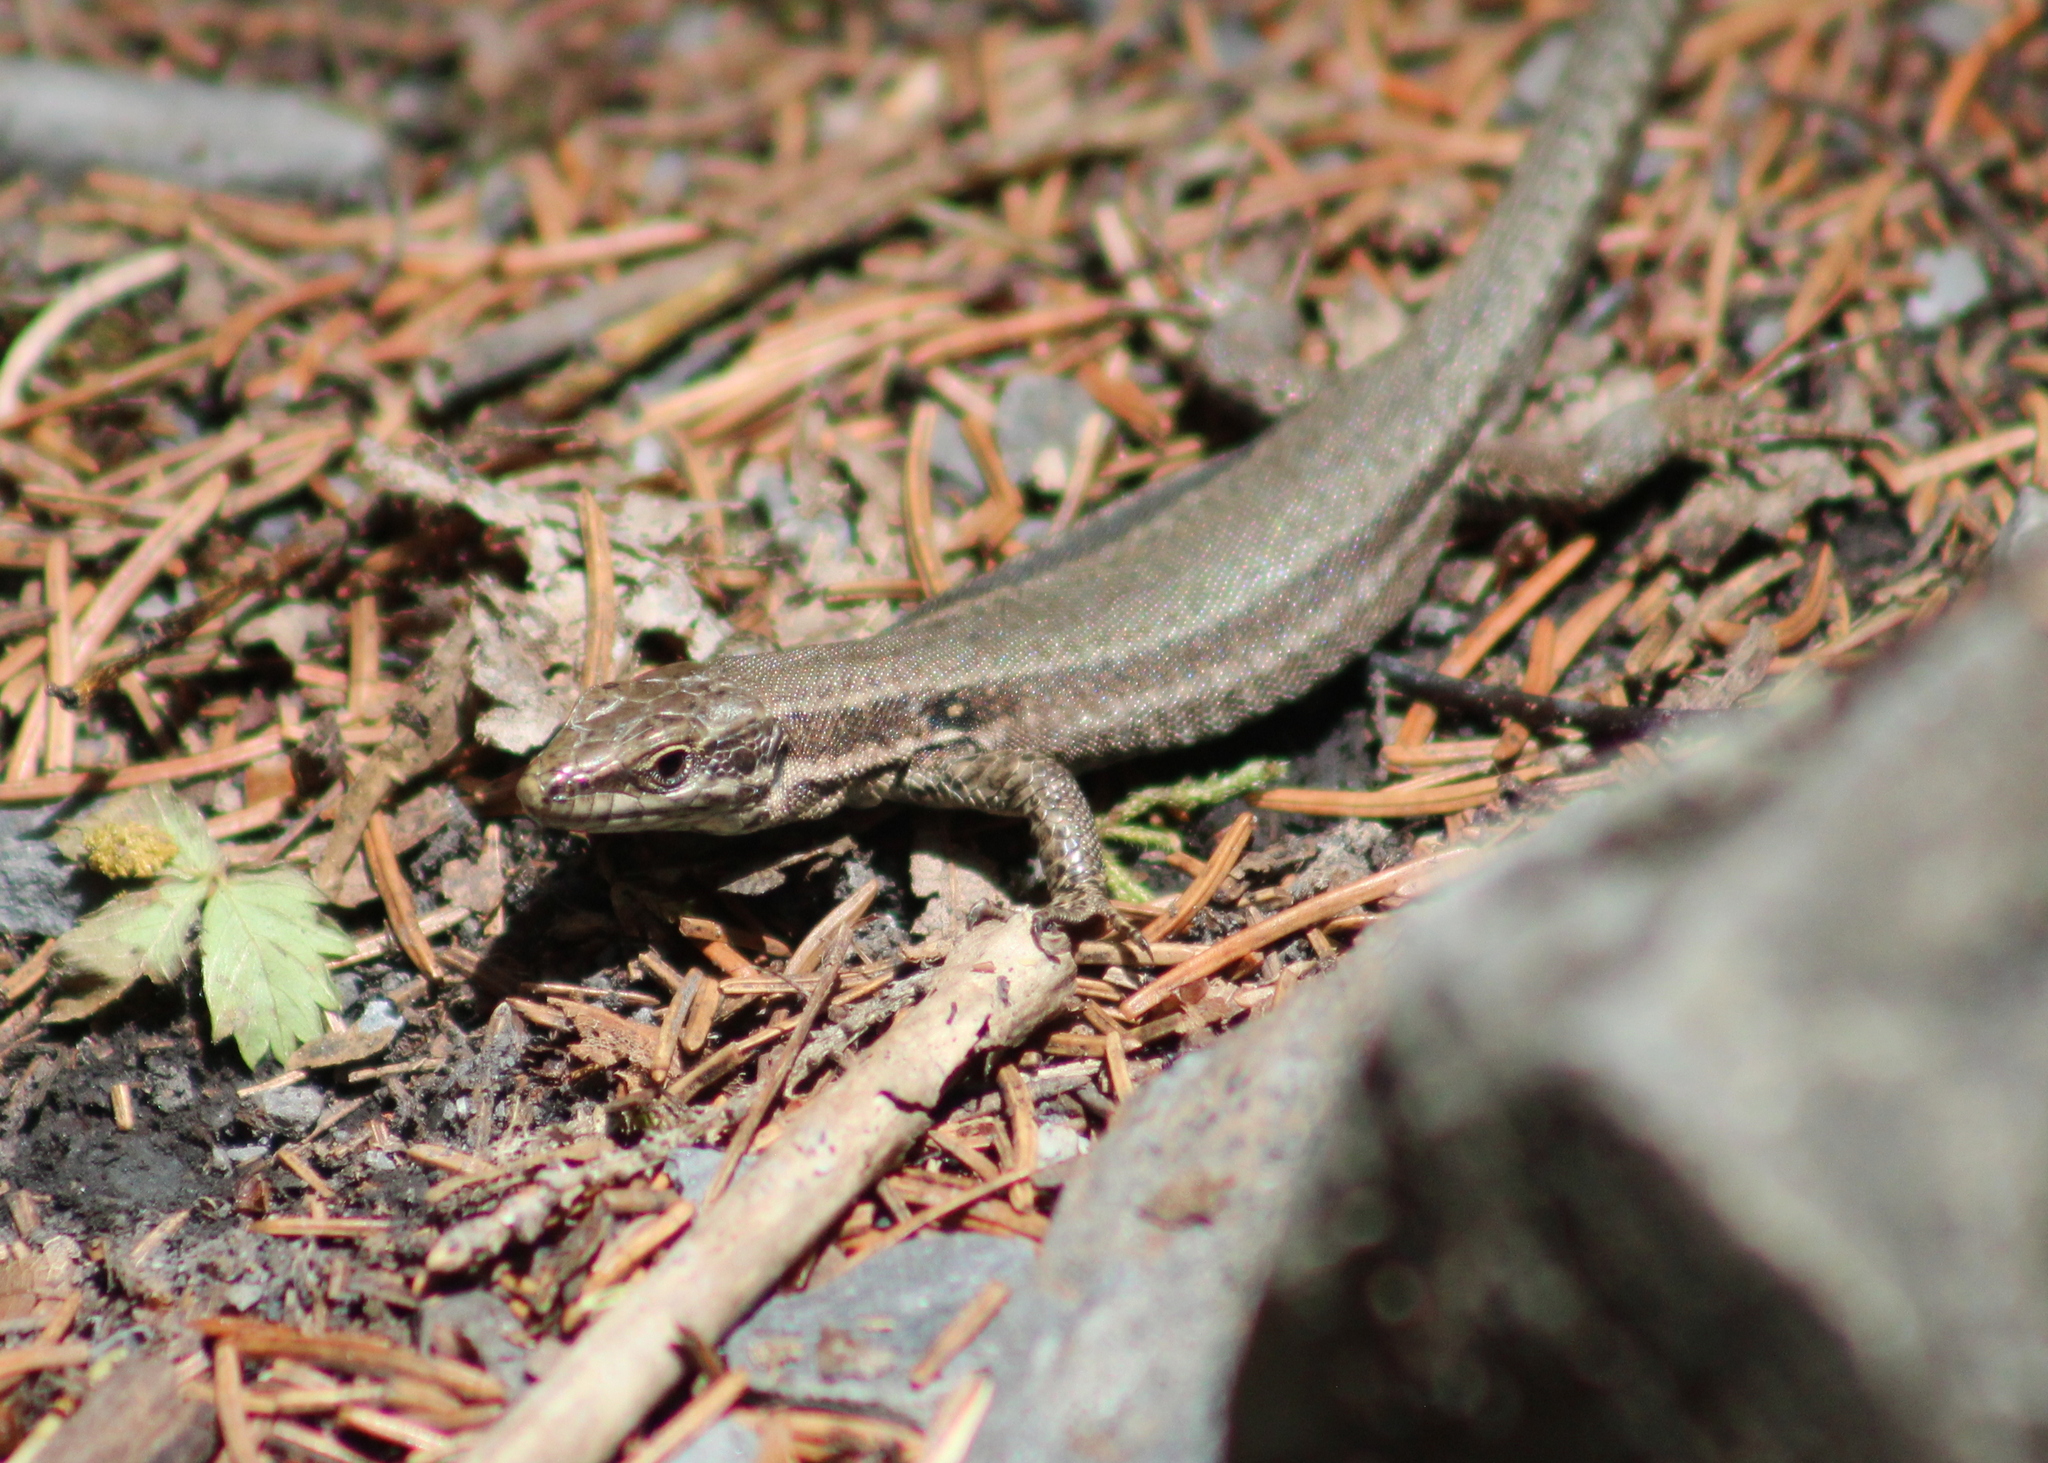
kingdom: Animalia
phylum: Chordata
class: Squamata
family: Lacertidae
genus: Podarcis
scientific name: Podarcis muralis
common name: Common wall lizard
